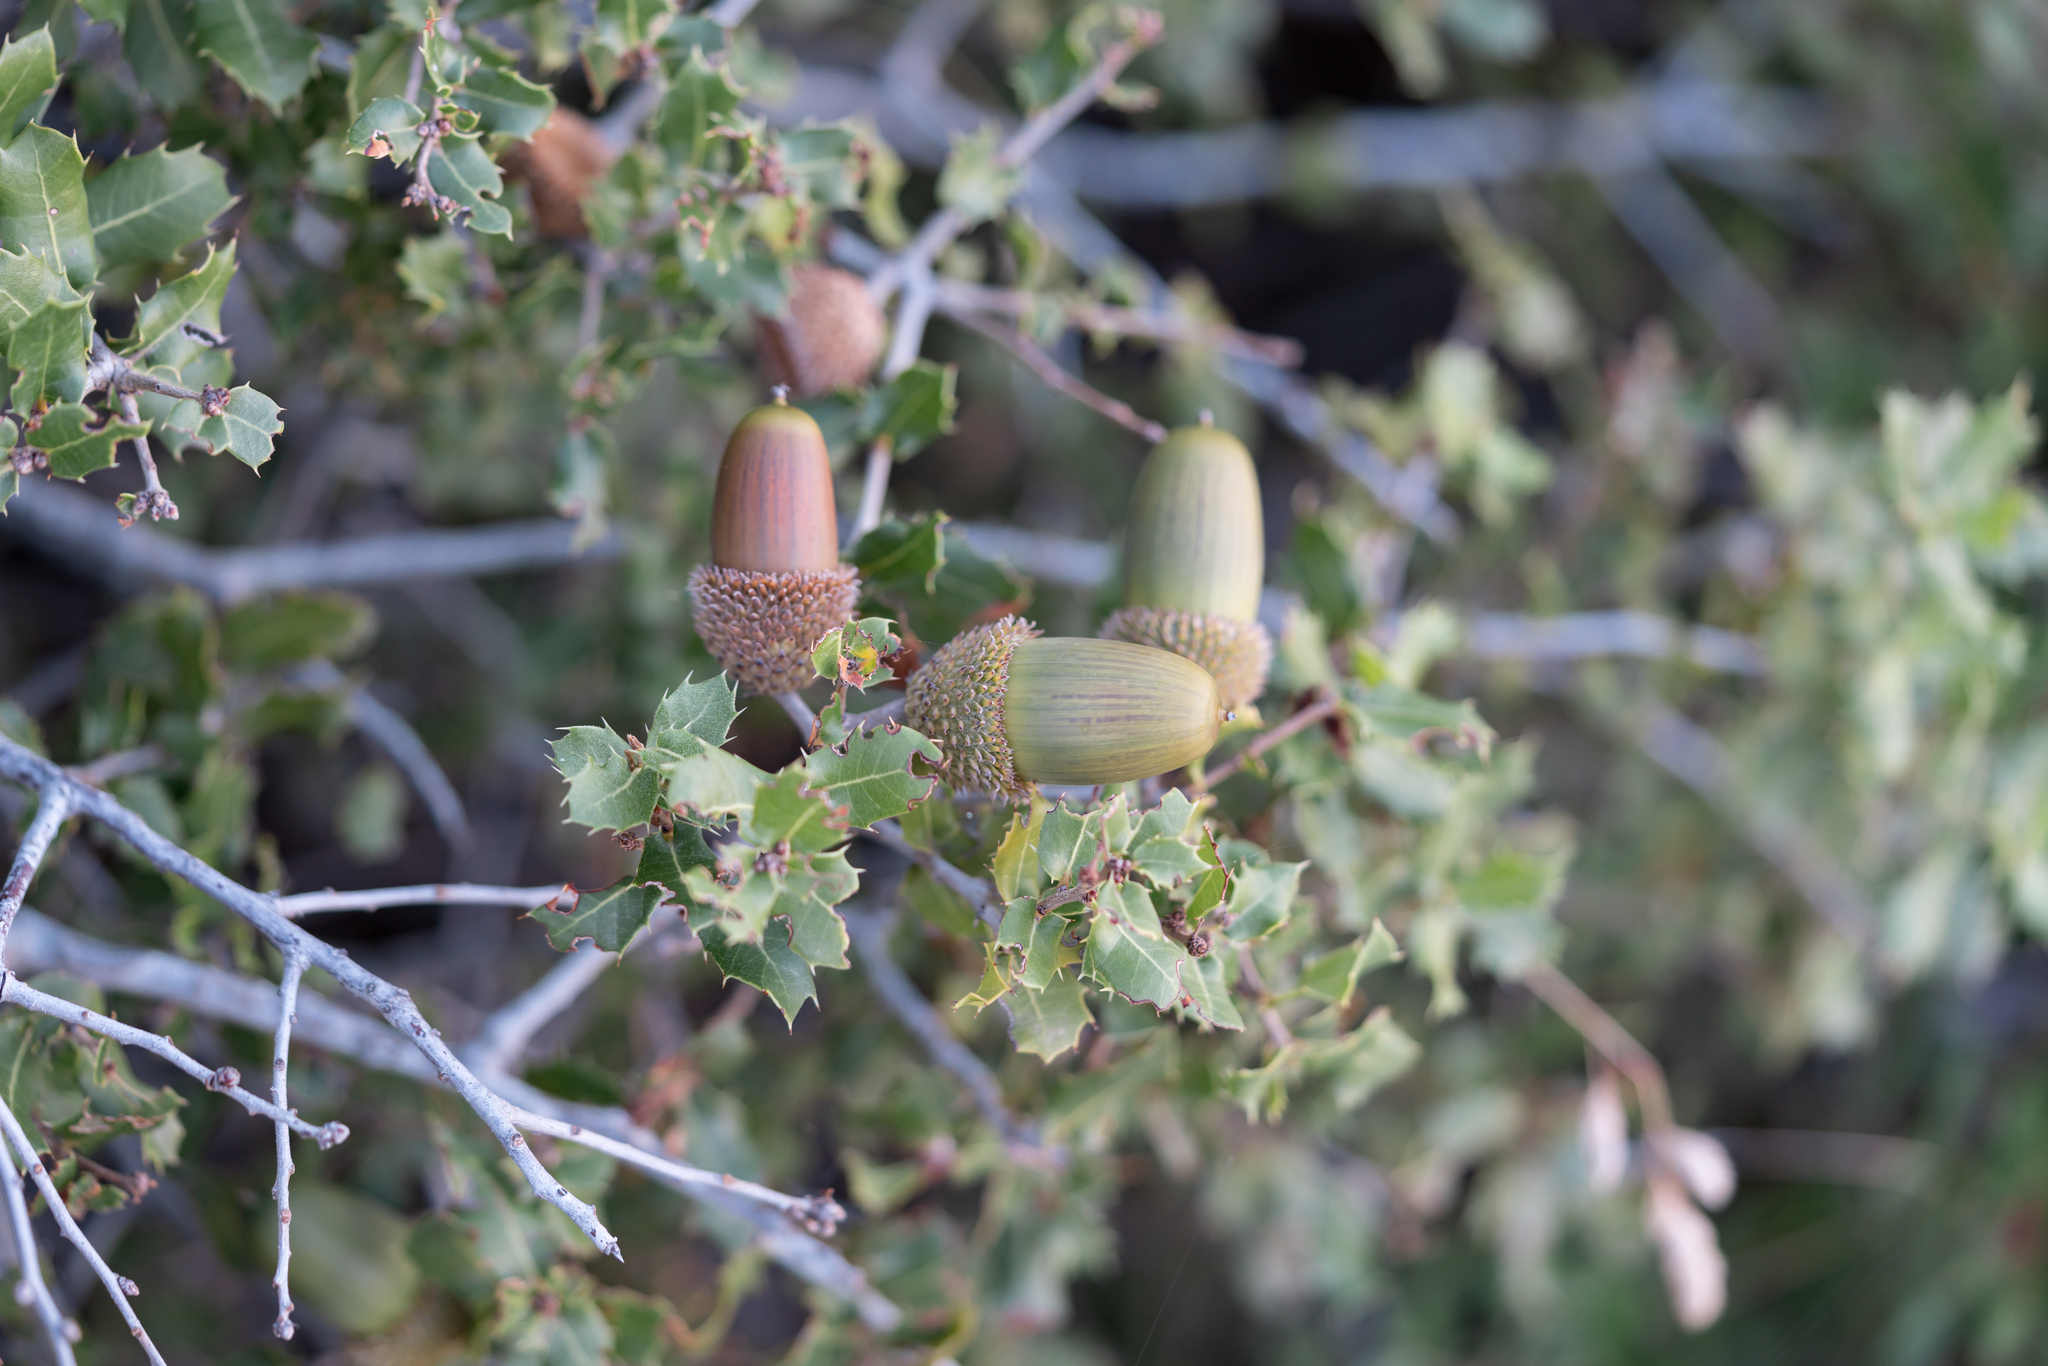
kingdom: Plantae
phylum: Tracheophyta
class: Magnoliopsida
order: Fagales
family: Fagaceae
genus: Quercus
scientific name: Quercus coccifera
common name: Kermes oak
